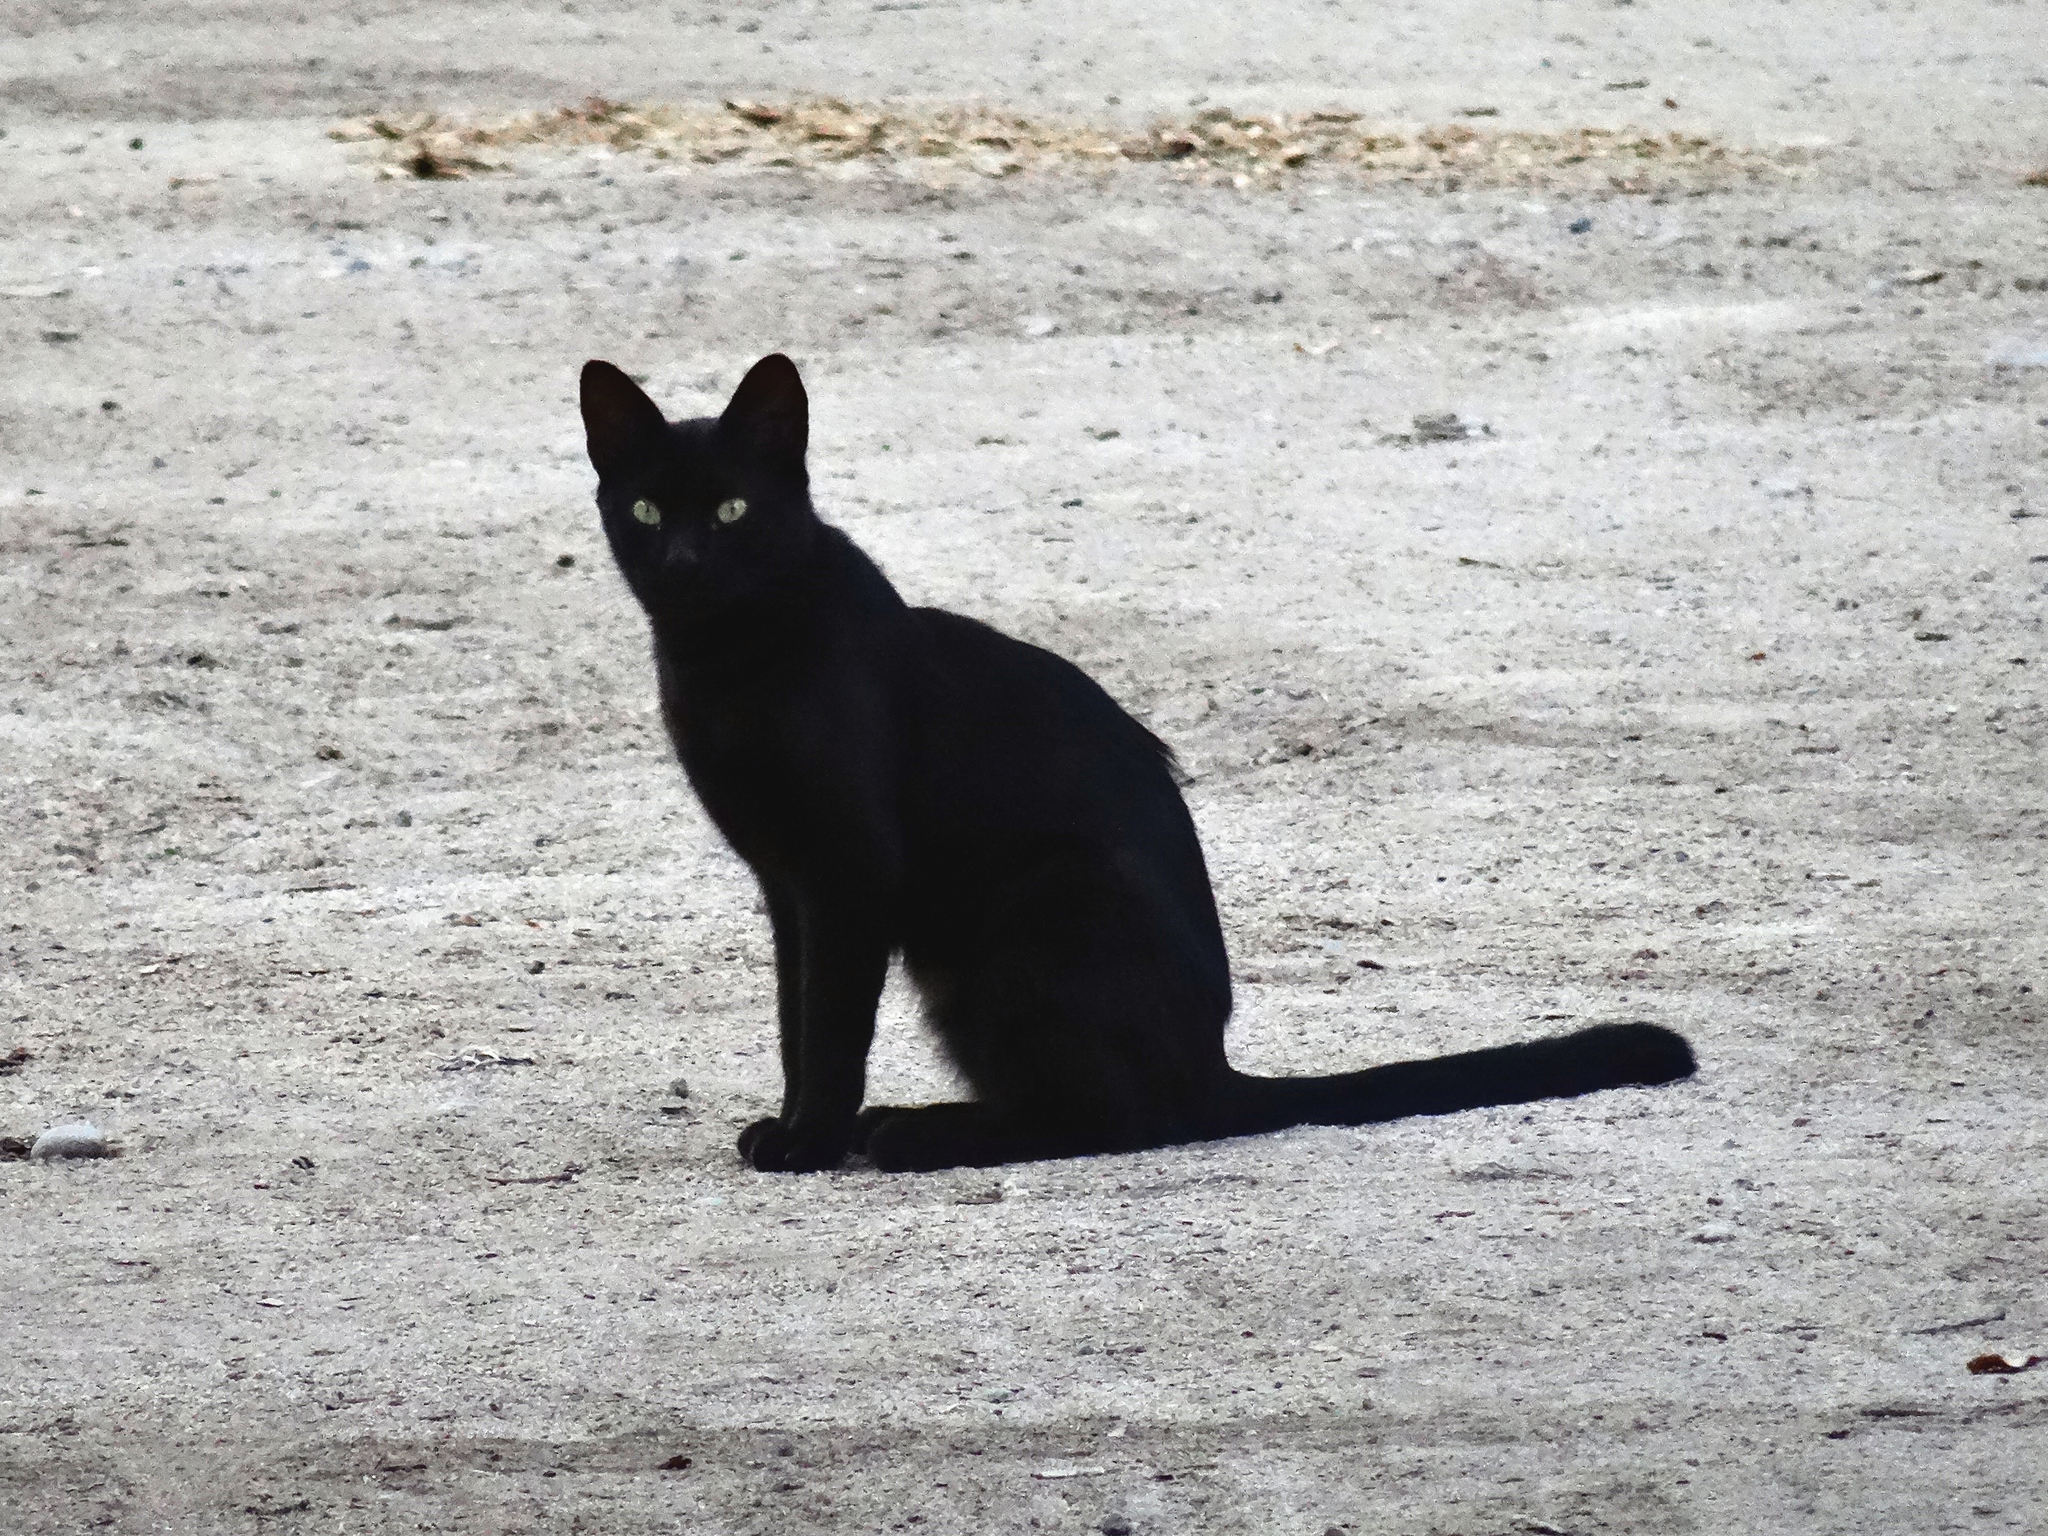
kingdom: Animalia
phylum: Chordata
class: Mammalia
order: Carnivora
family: Felidae
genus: Felis
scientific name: Felis catus
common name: Domestic cat
